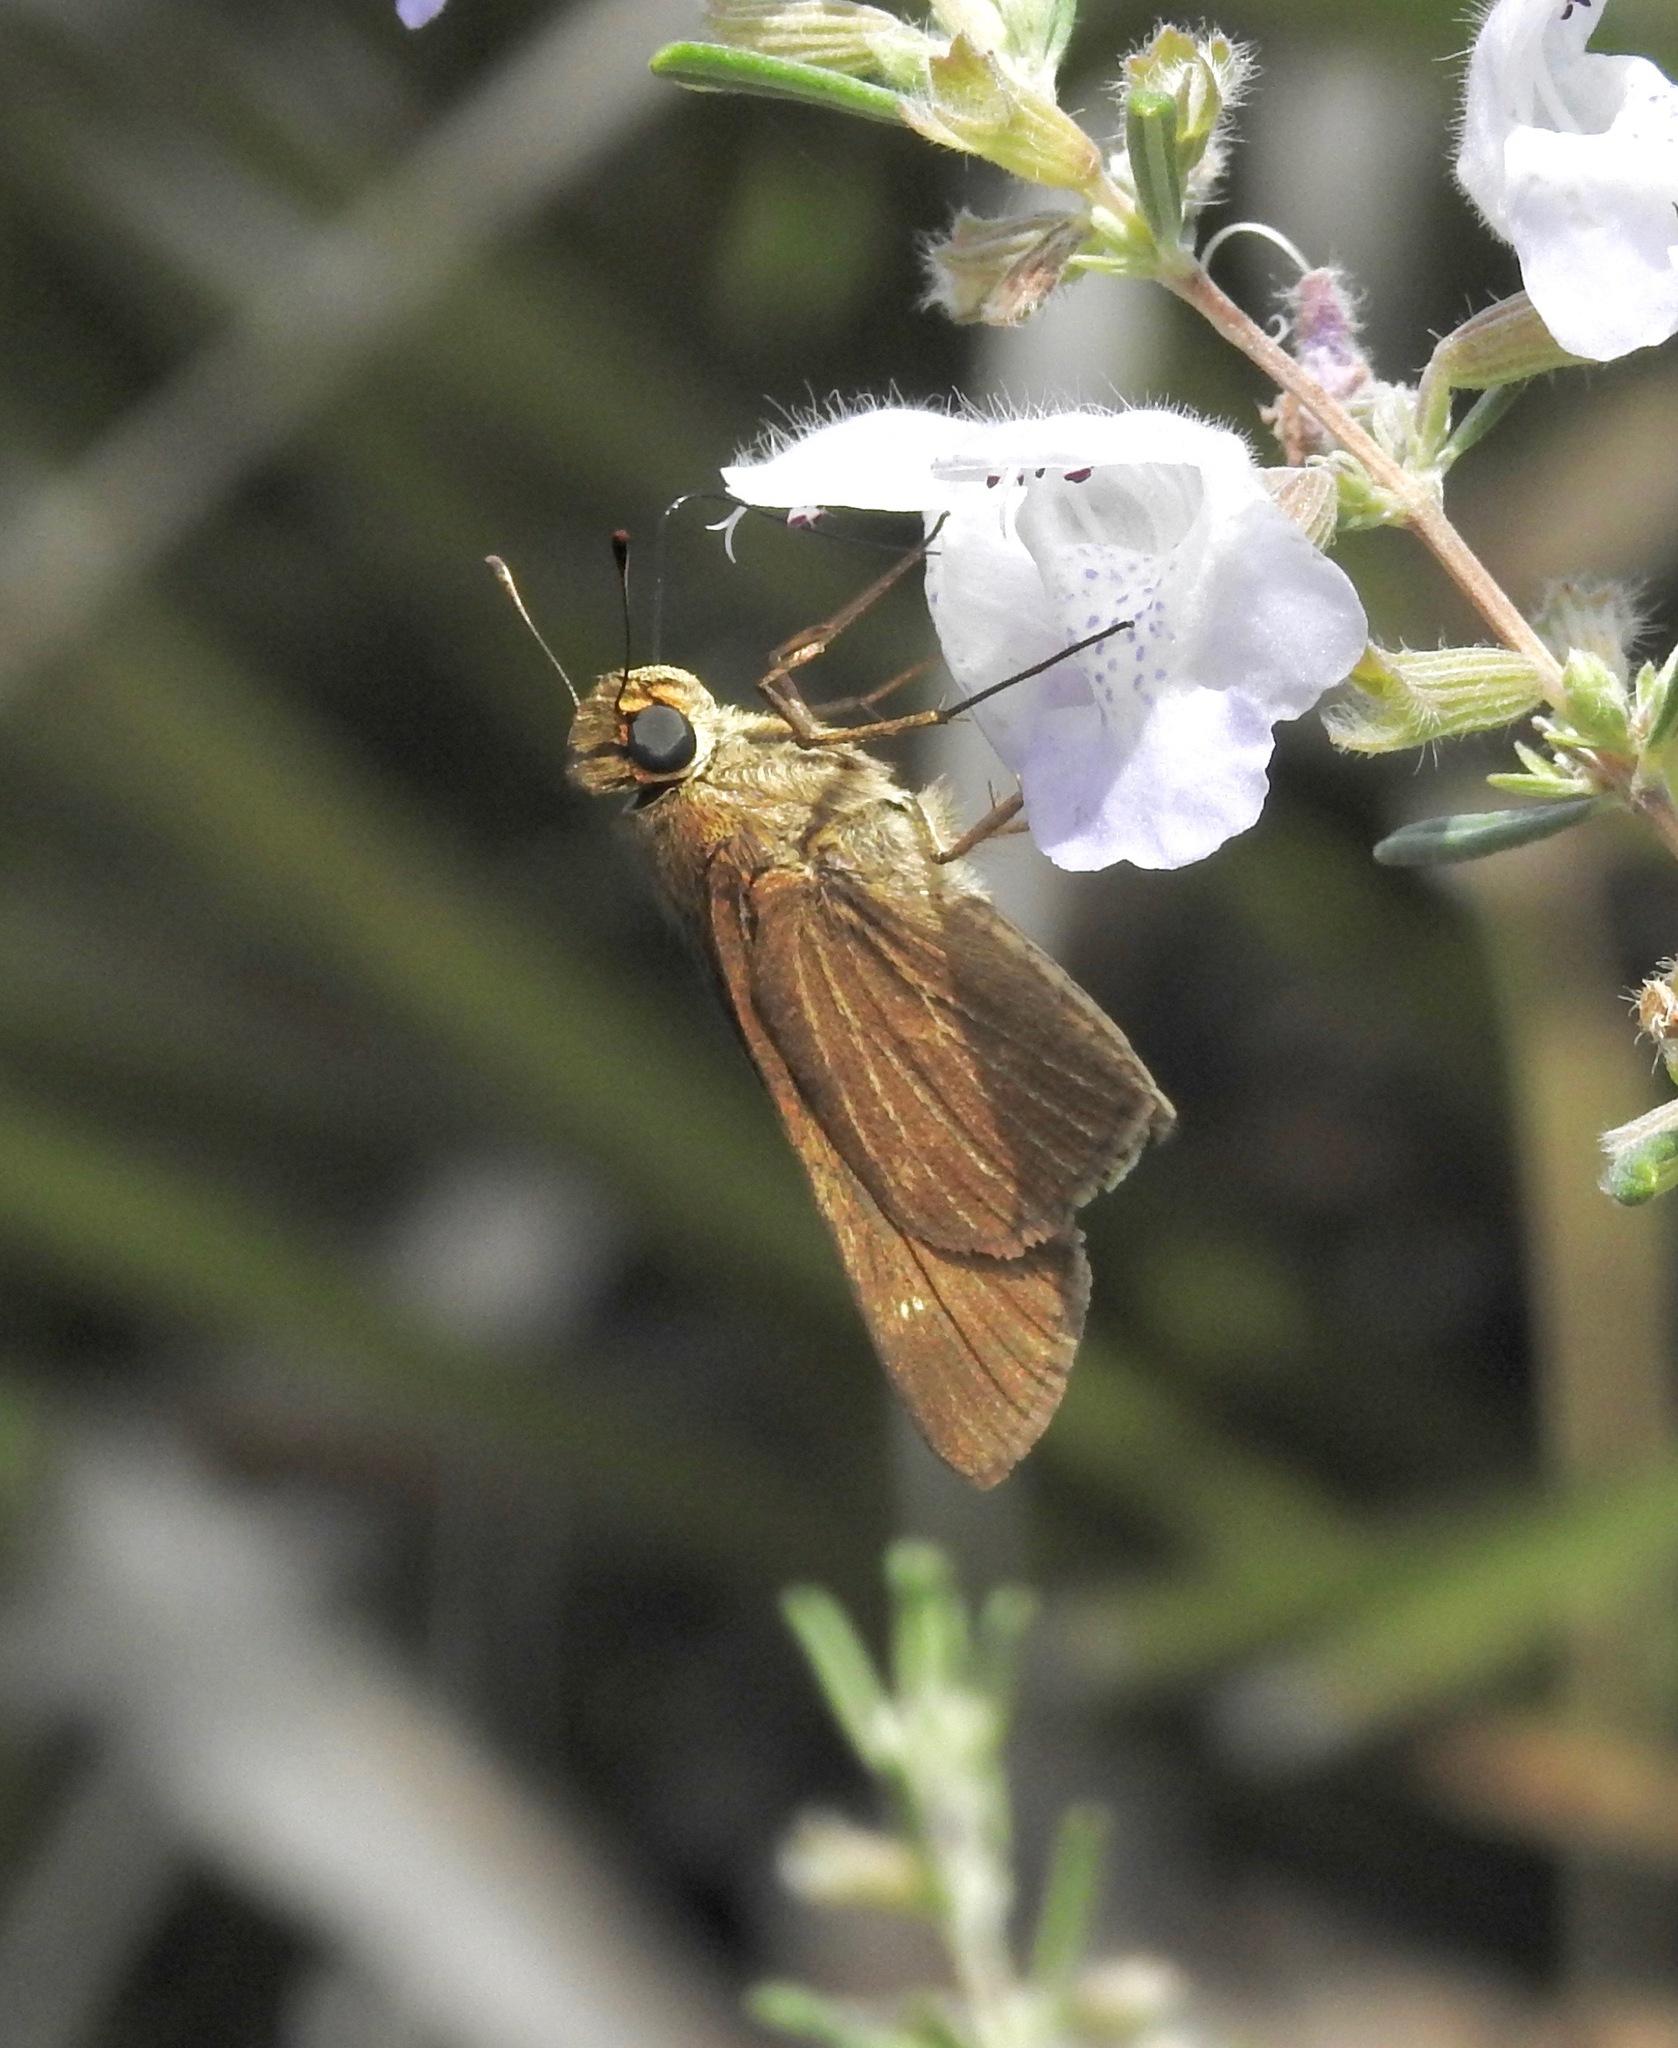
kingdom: Animalia
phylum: Arthropoda
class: Insecta
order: Lepidoptera
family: Hesperiidae
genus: Panoquina
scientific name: Panoquina ocola
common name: Ocola skipper
